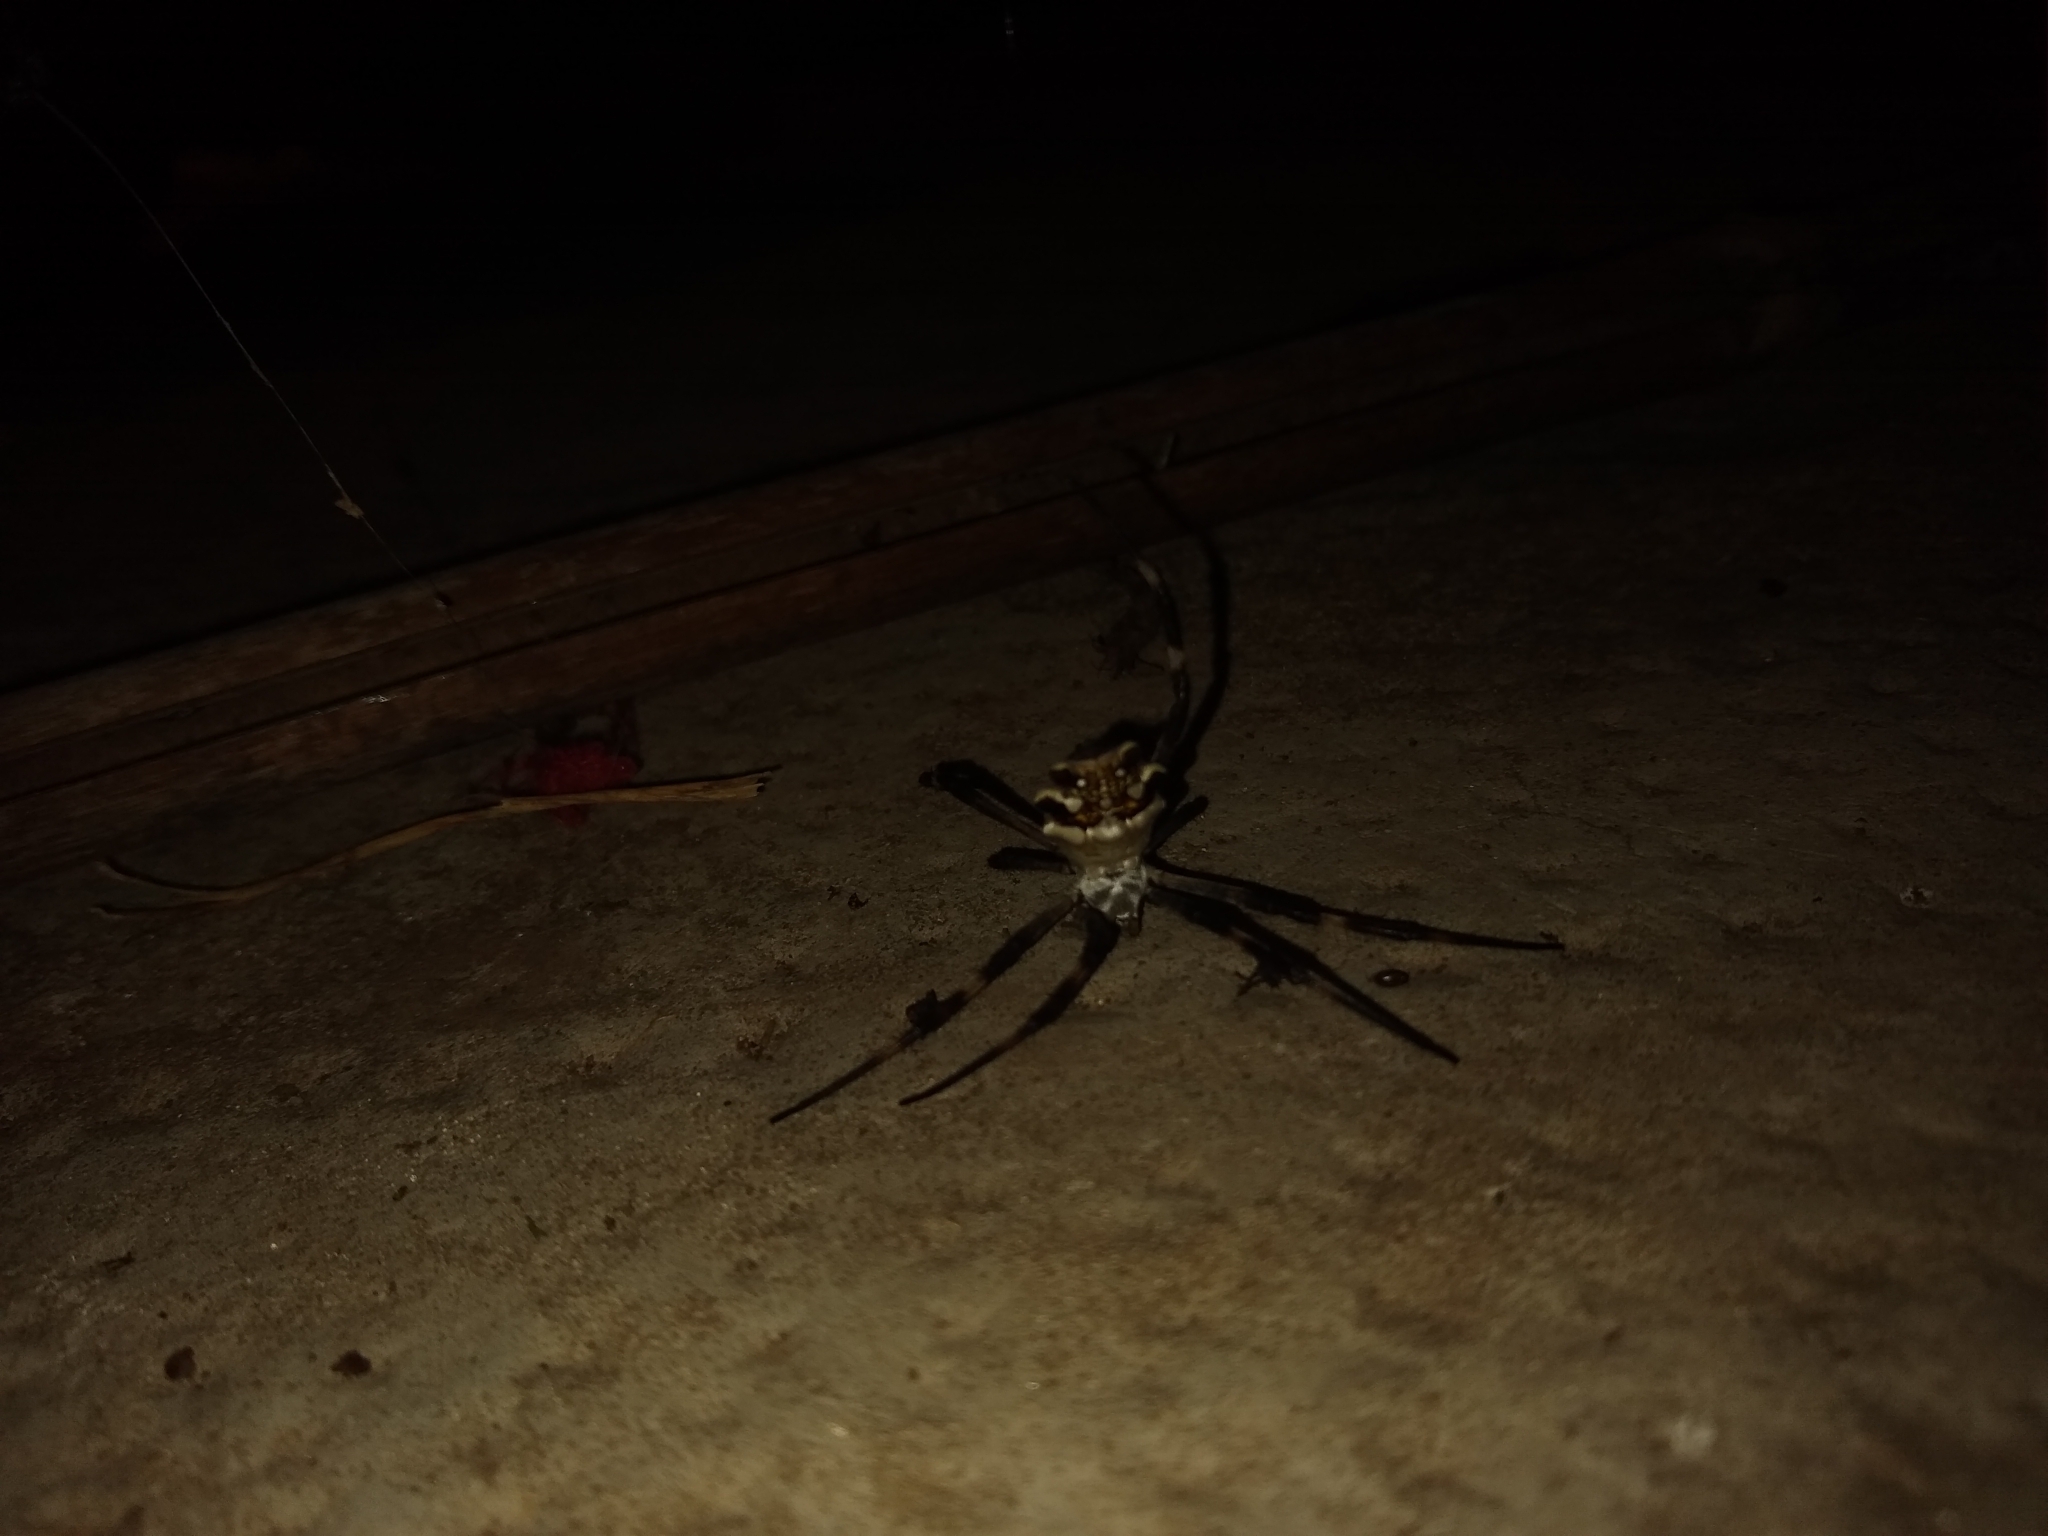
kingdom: Animalia
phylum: Arthropoda
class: Arachnida
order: Araneae
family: Araneidae
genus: Argiope
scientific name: Argiope argentata
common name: Orb weavers
